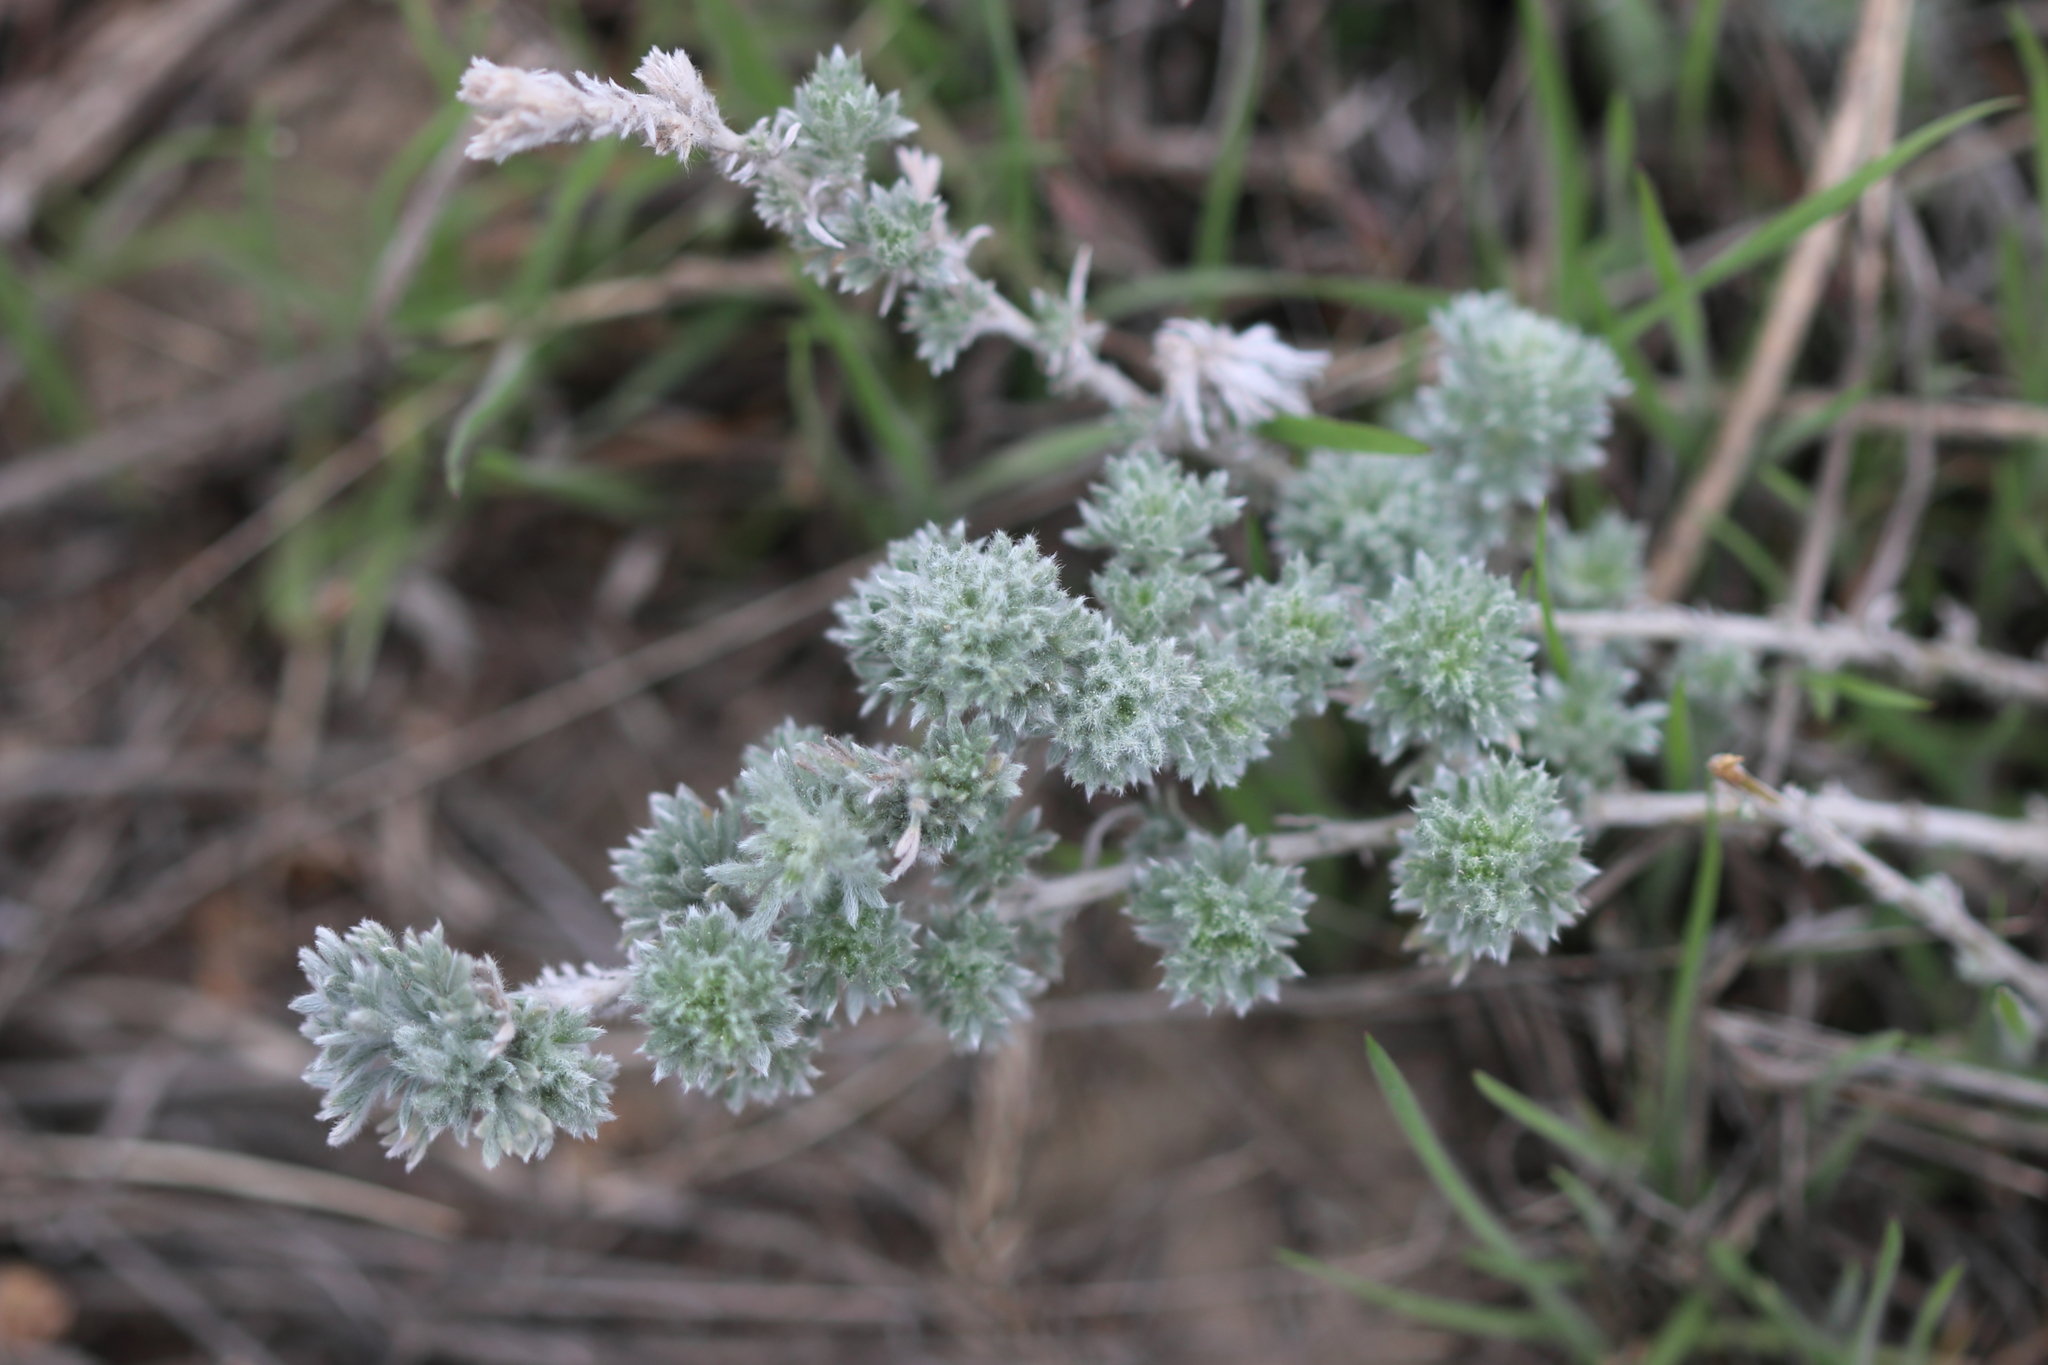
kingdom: Plantae
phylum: Tracheophyta
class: Magnoliopsida
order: Asterales
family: Asteraceae
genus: Artemisia
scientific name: Artemisia frigida
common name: Prairie sagewort
